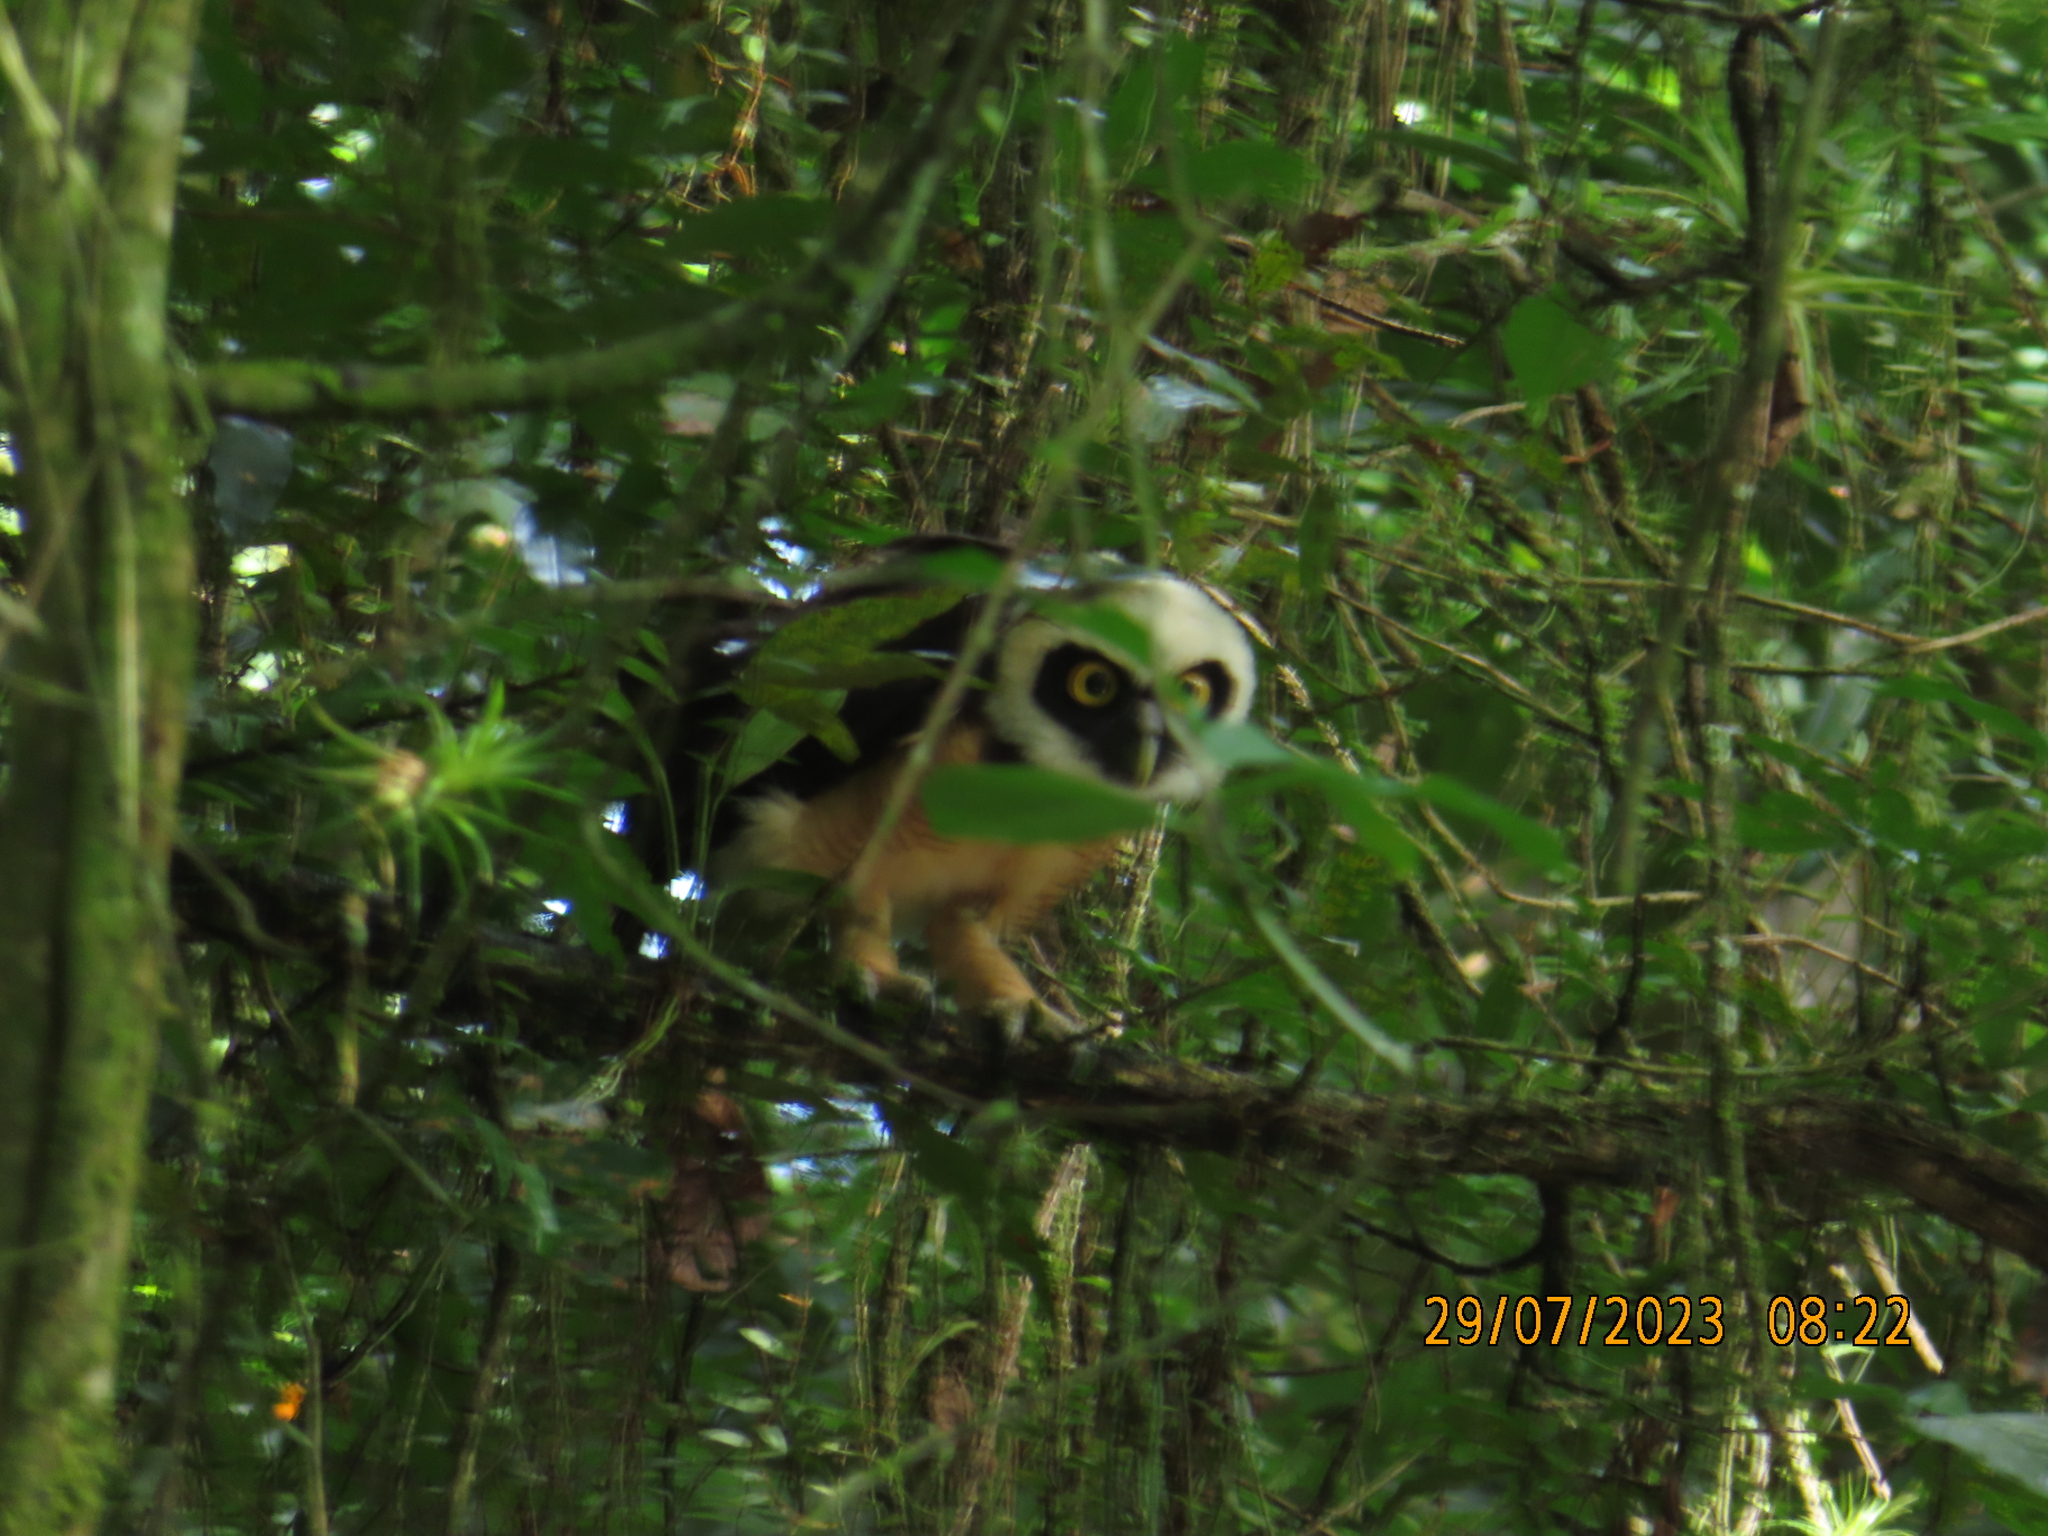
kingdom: Animalia
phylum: Chordata
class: Aves
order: Strigiformes
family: Strigidae
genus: Pulsatrix
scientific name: Pulsatrix perspicillata
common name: Spectacled owl
